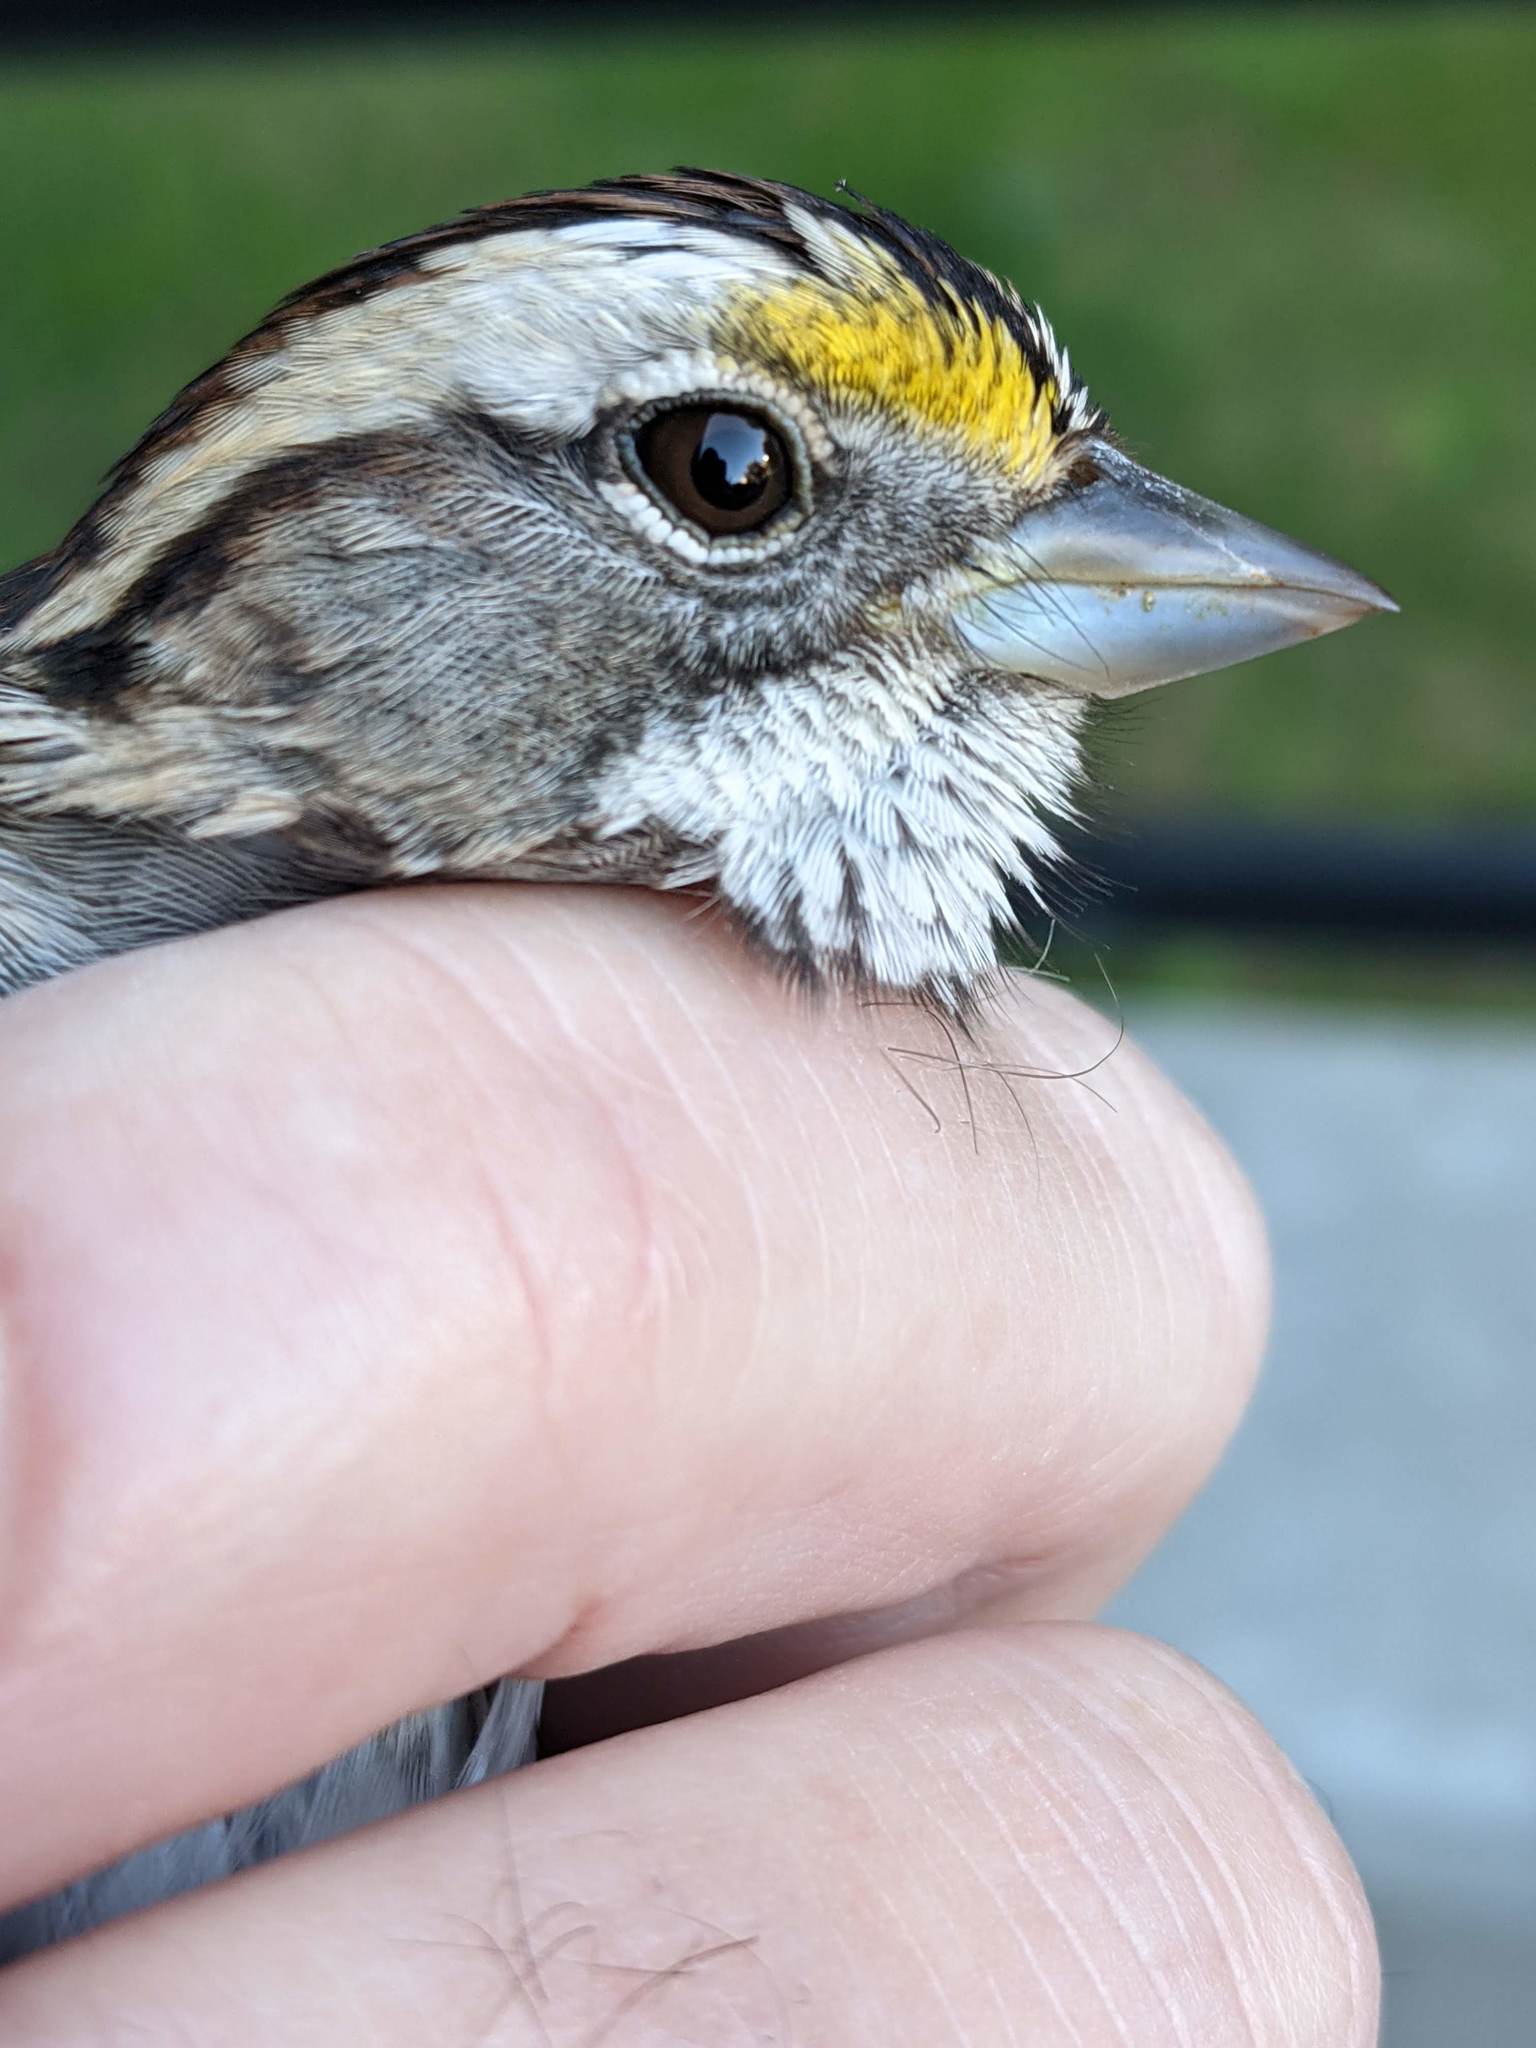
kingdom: Animalia
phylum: Chordata
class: Aves
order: Passeriformes
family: Passerellidae
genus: Zonotrichia
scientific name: Zonotrichia albicollis
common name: White-throated sparrow
